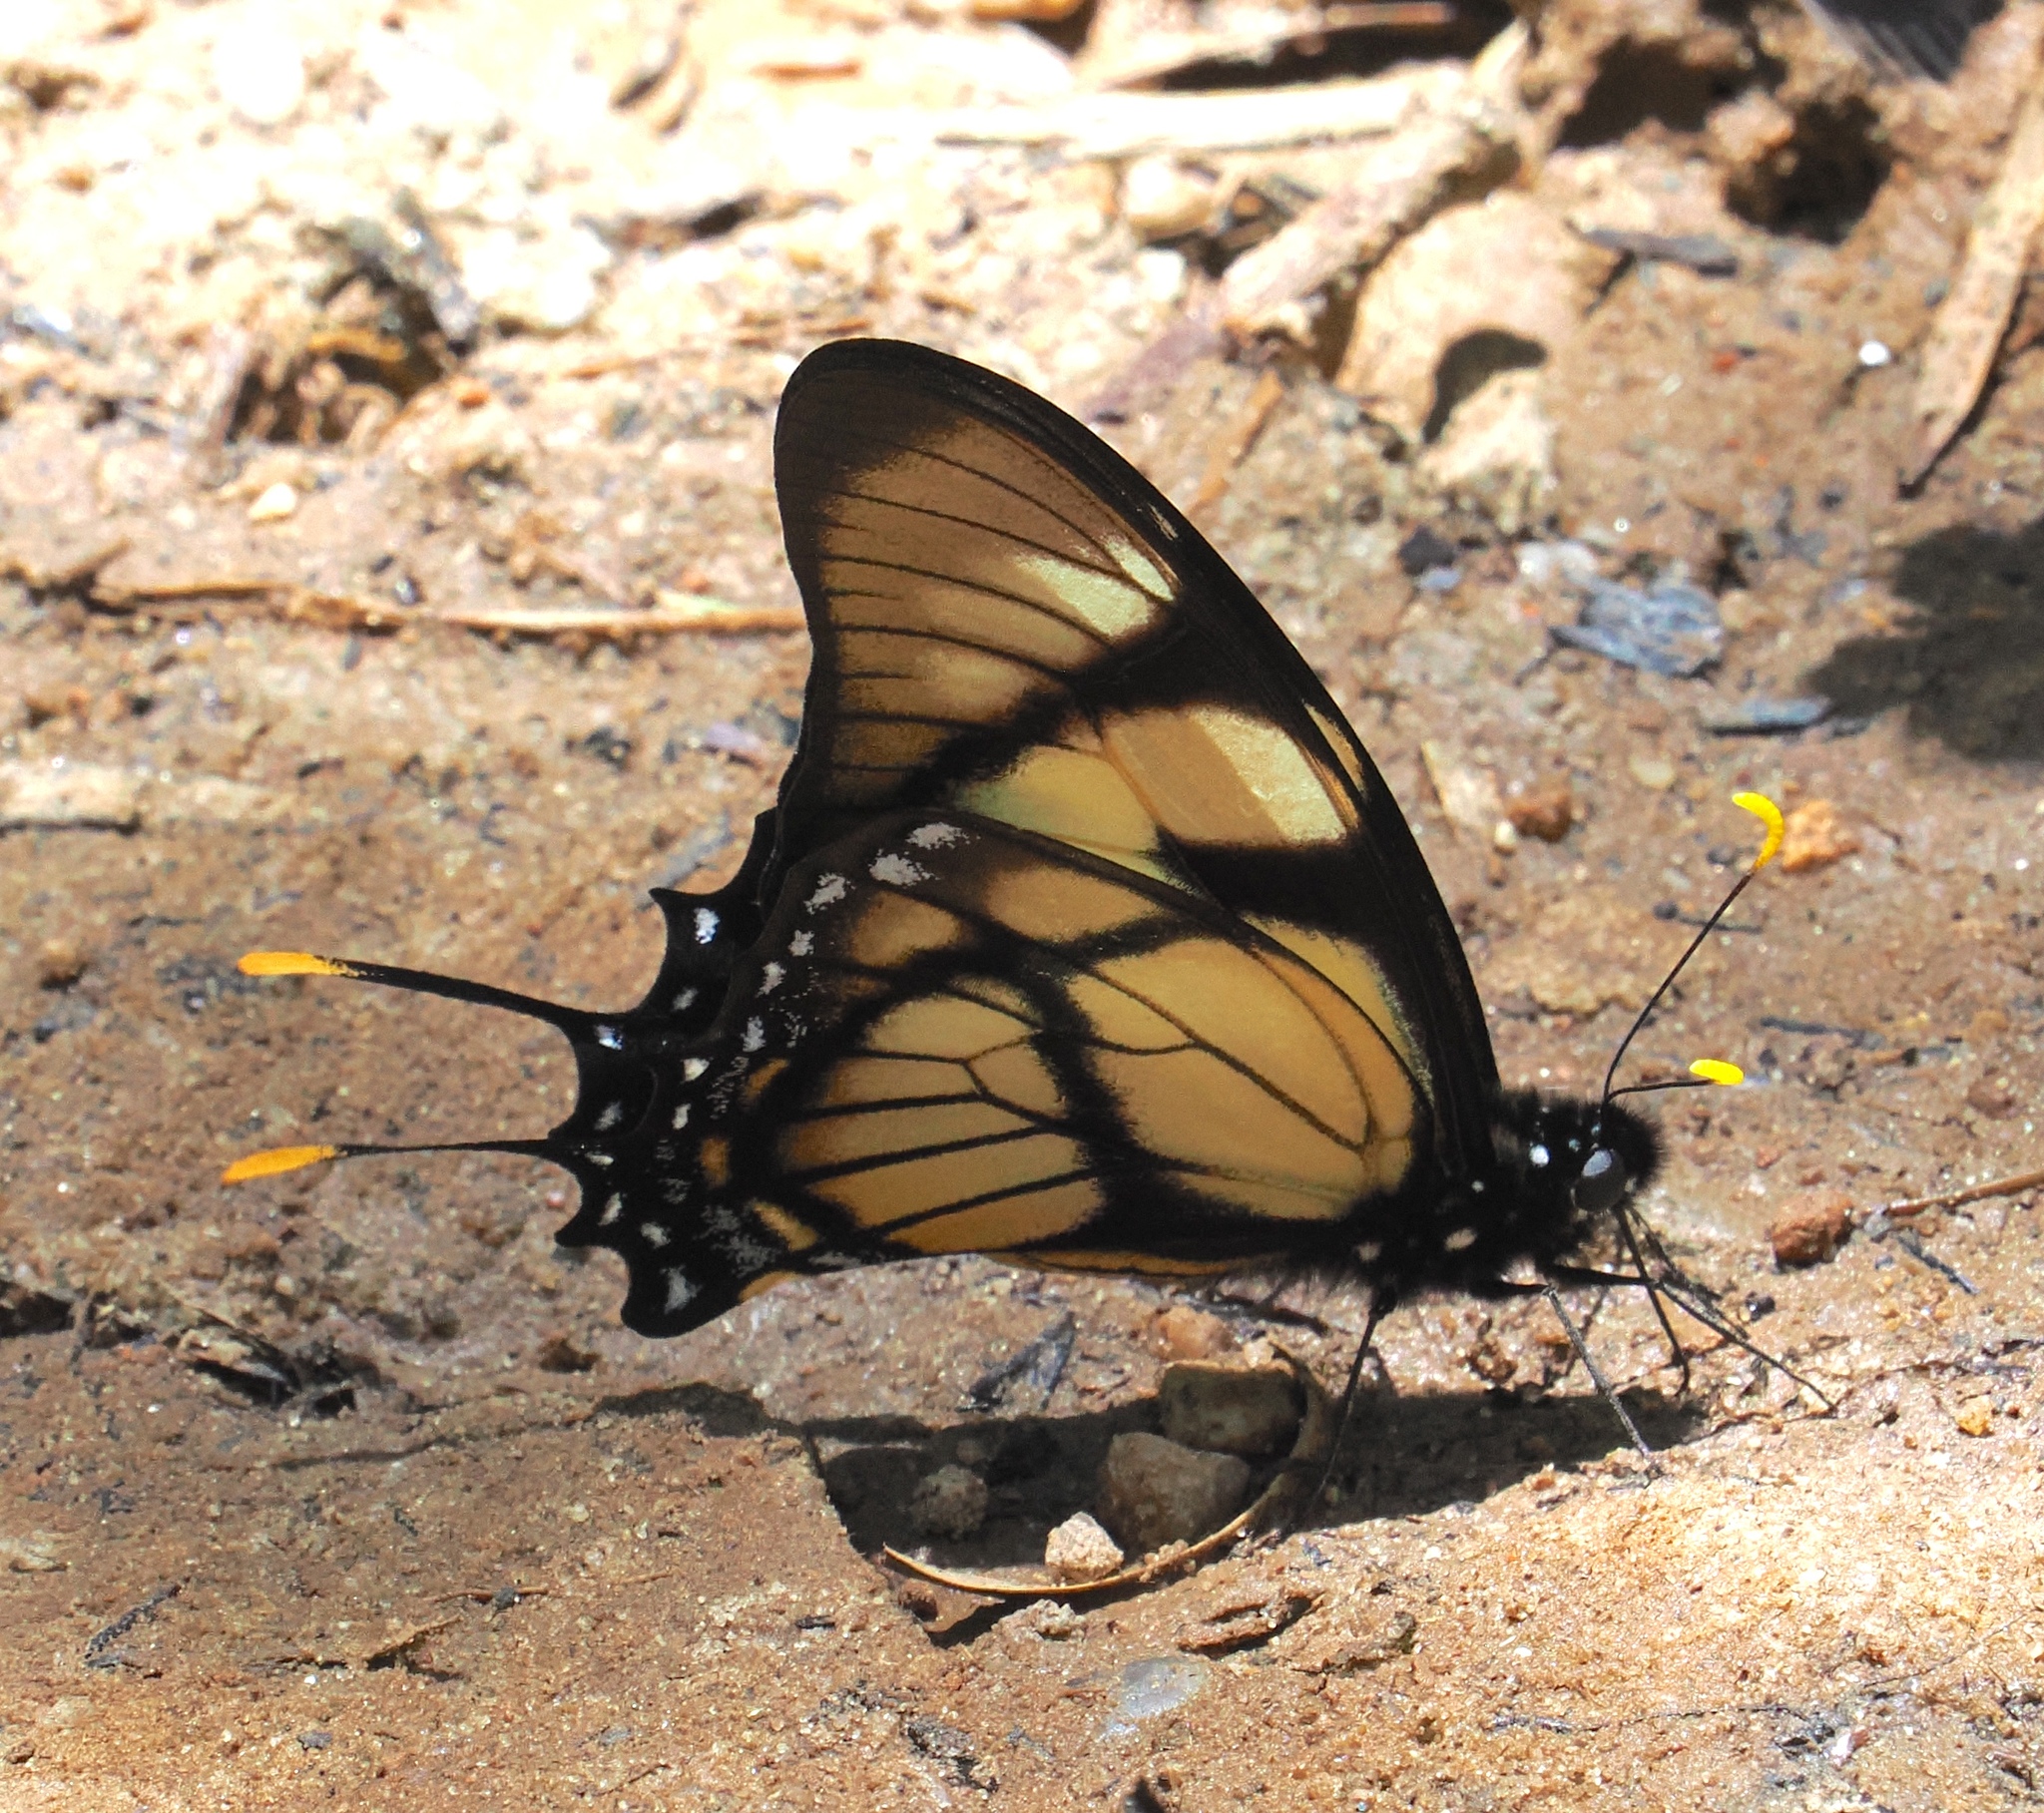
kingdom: Animalia
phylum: Arthropoda
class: Insecta
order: Lepidoptera
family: Papilionidae
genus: Eurytides
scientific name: Eurytides dolicaon
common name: Dolicaon kite swallowtail
